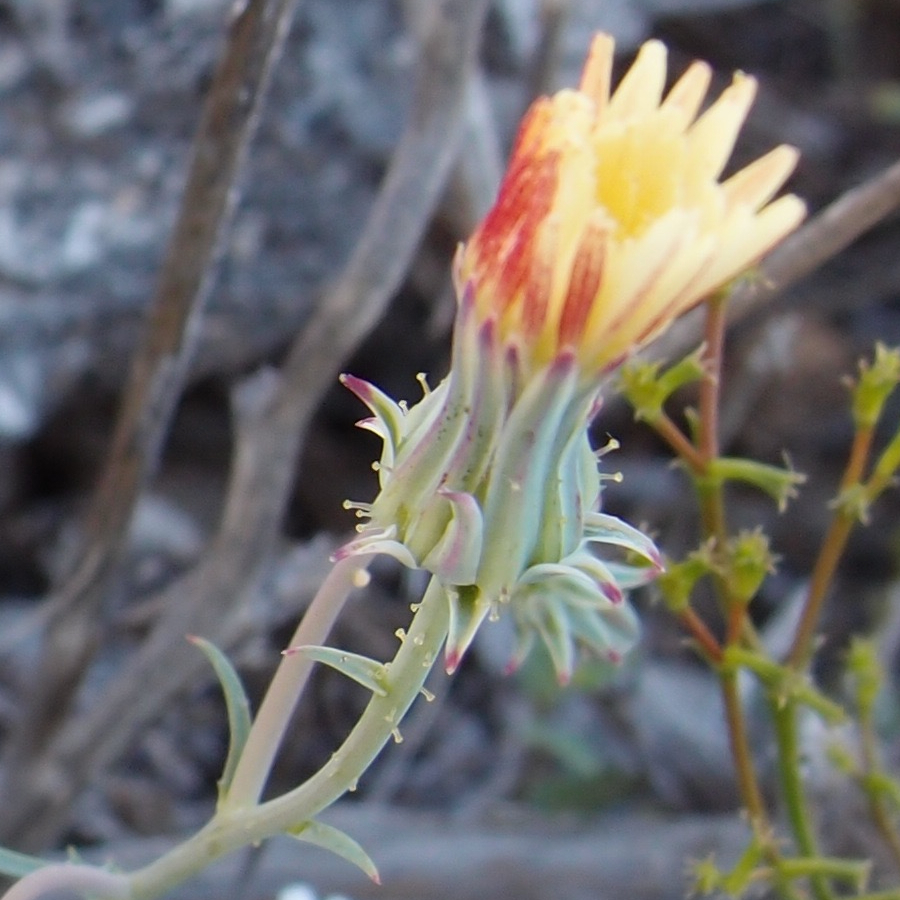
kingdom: Plantae
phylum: Tracheophyta
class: Magnoliopsida
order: Asterales
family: Asteraceae
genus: Calycoseris
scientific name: Calycoseris parryi
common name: Yellow tackstem
